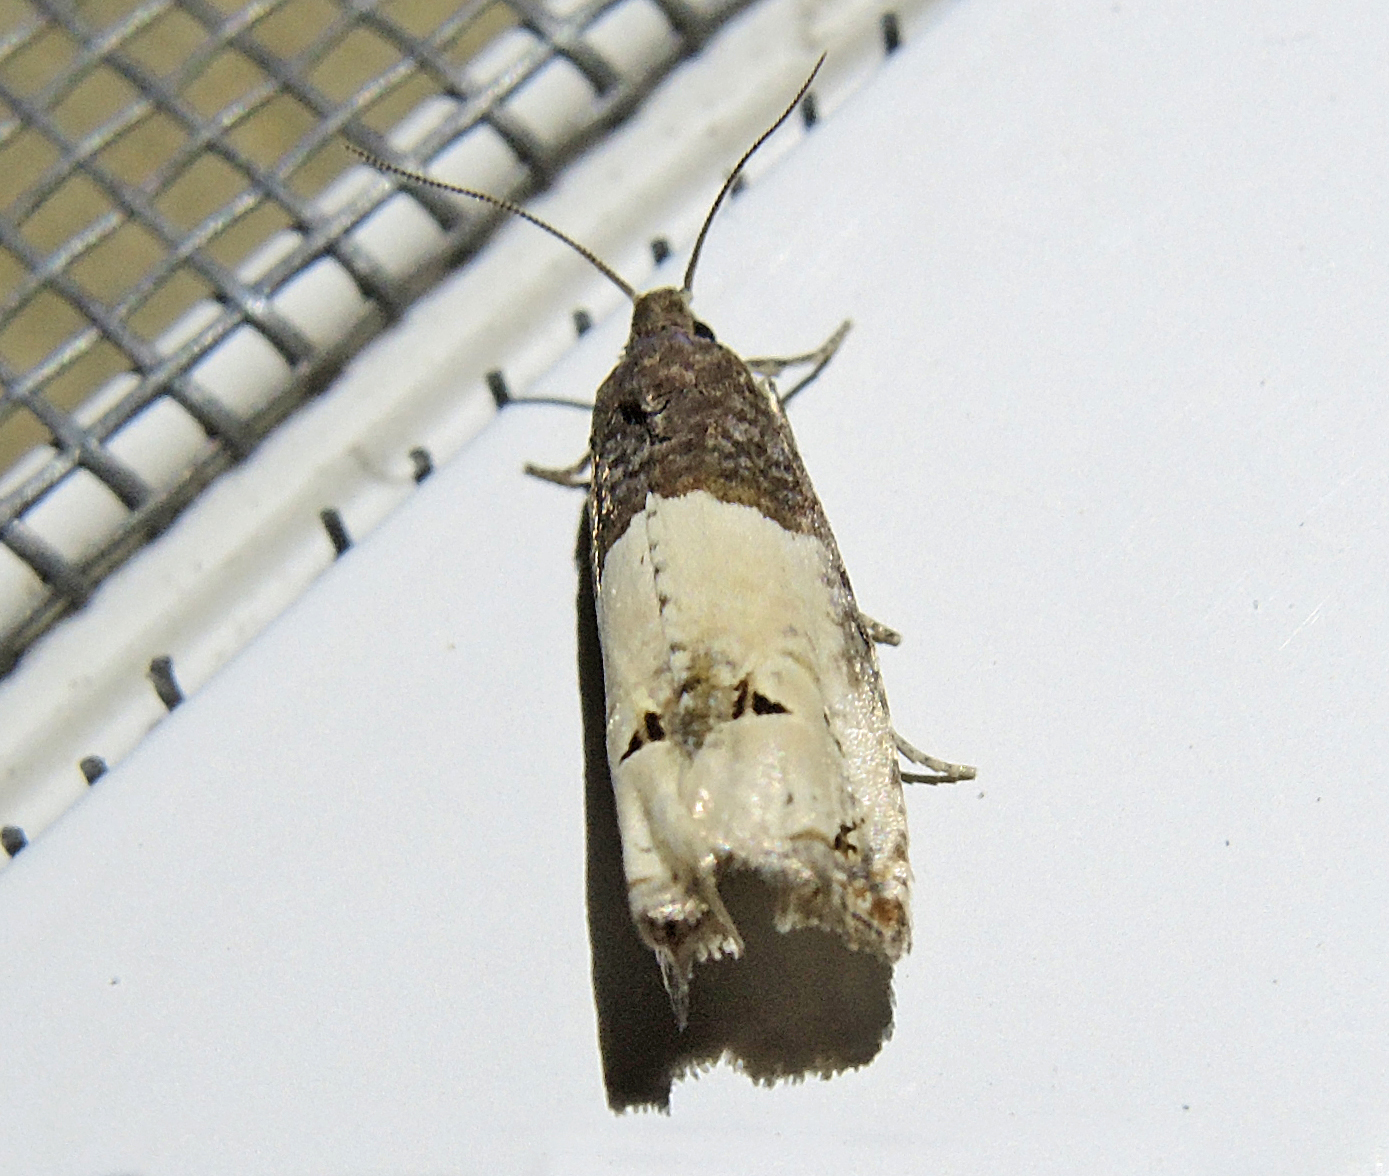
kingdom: Animalia
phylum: Arthropoda
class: Insecta
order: Lepidoptera
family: Tortricidae
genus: Epiblema
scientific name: Epiblema aquana
